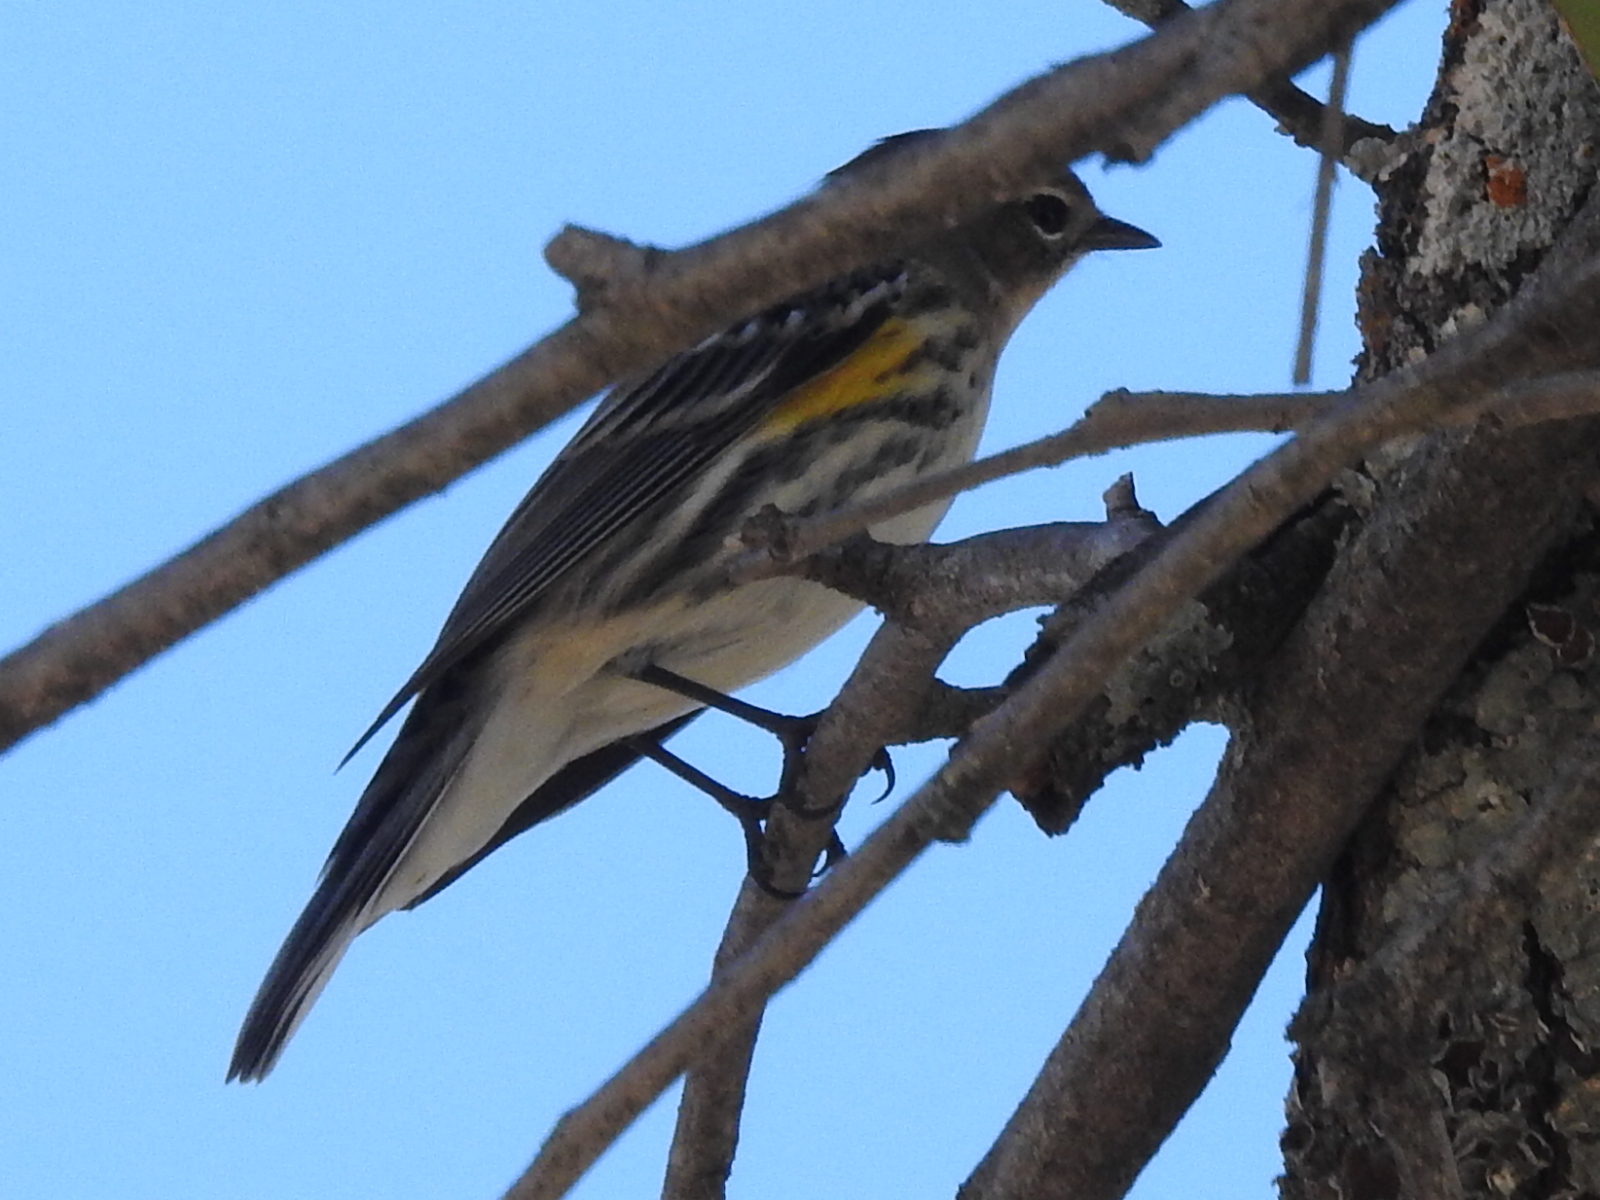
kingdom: Animalia
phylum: Chordata
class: Aves
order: Passeriformes
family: Parulidae
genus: Setophaga
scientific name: Setophaga coronata
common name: Myrtle warbler
